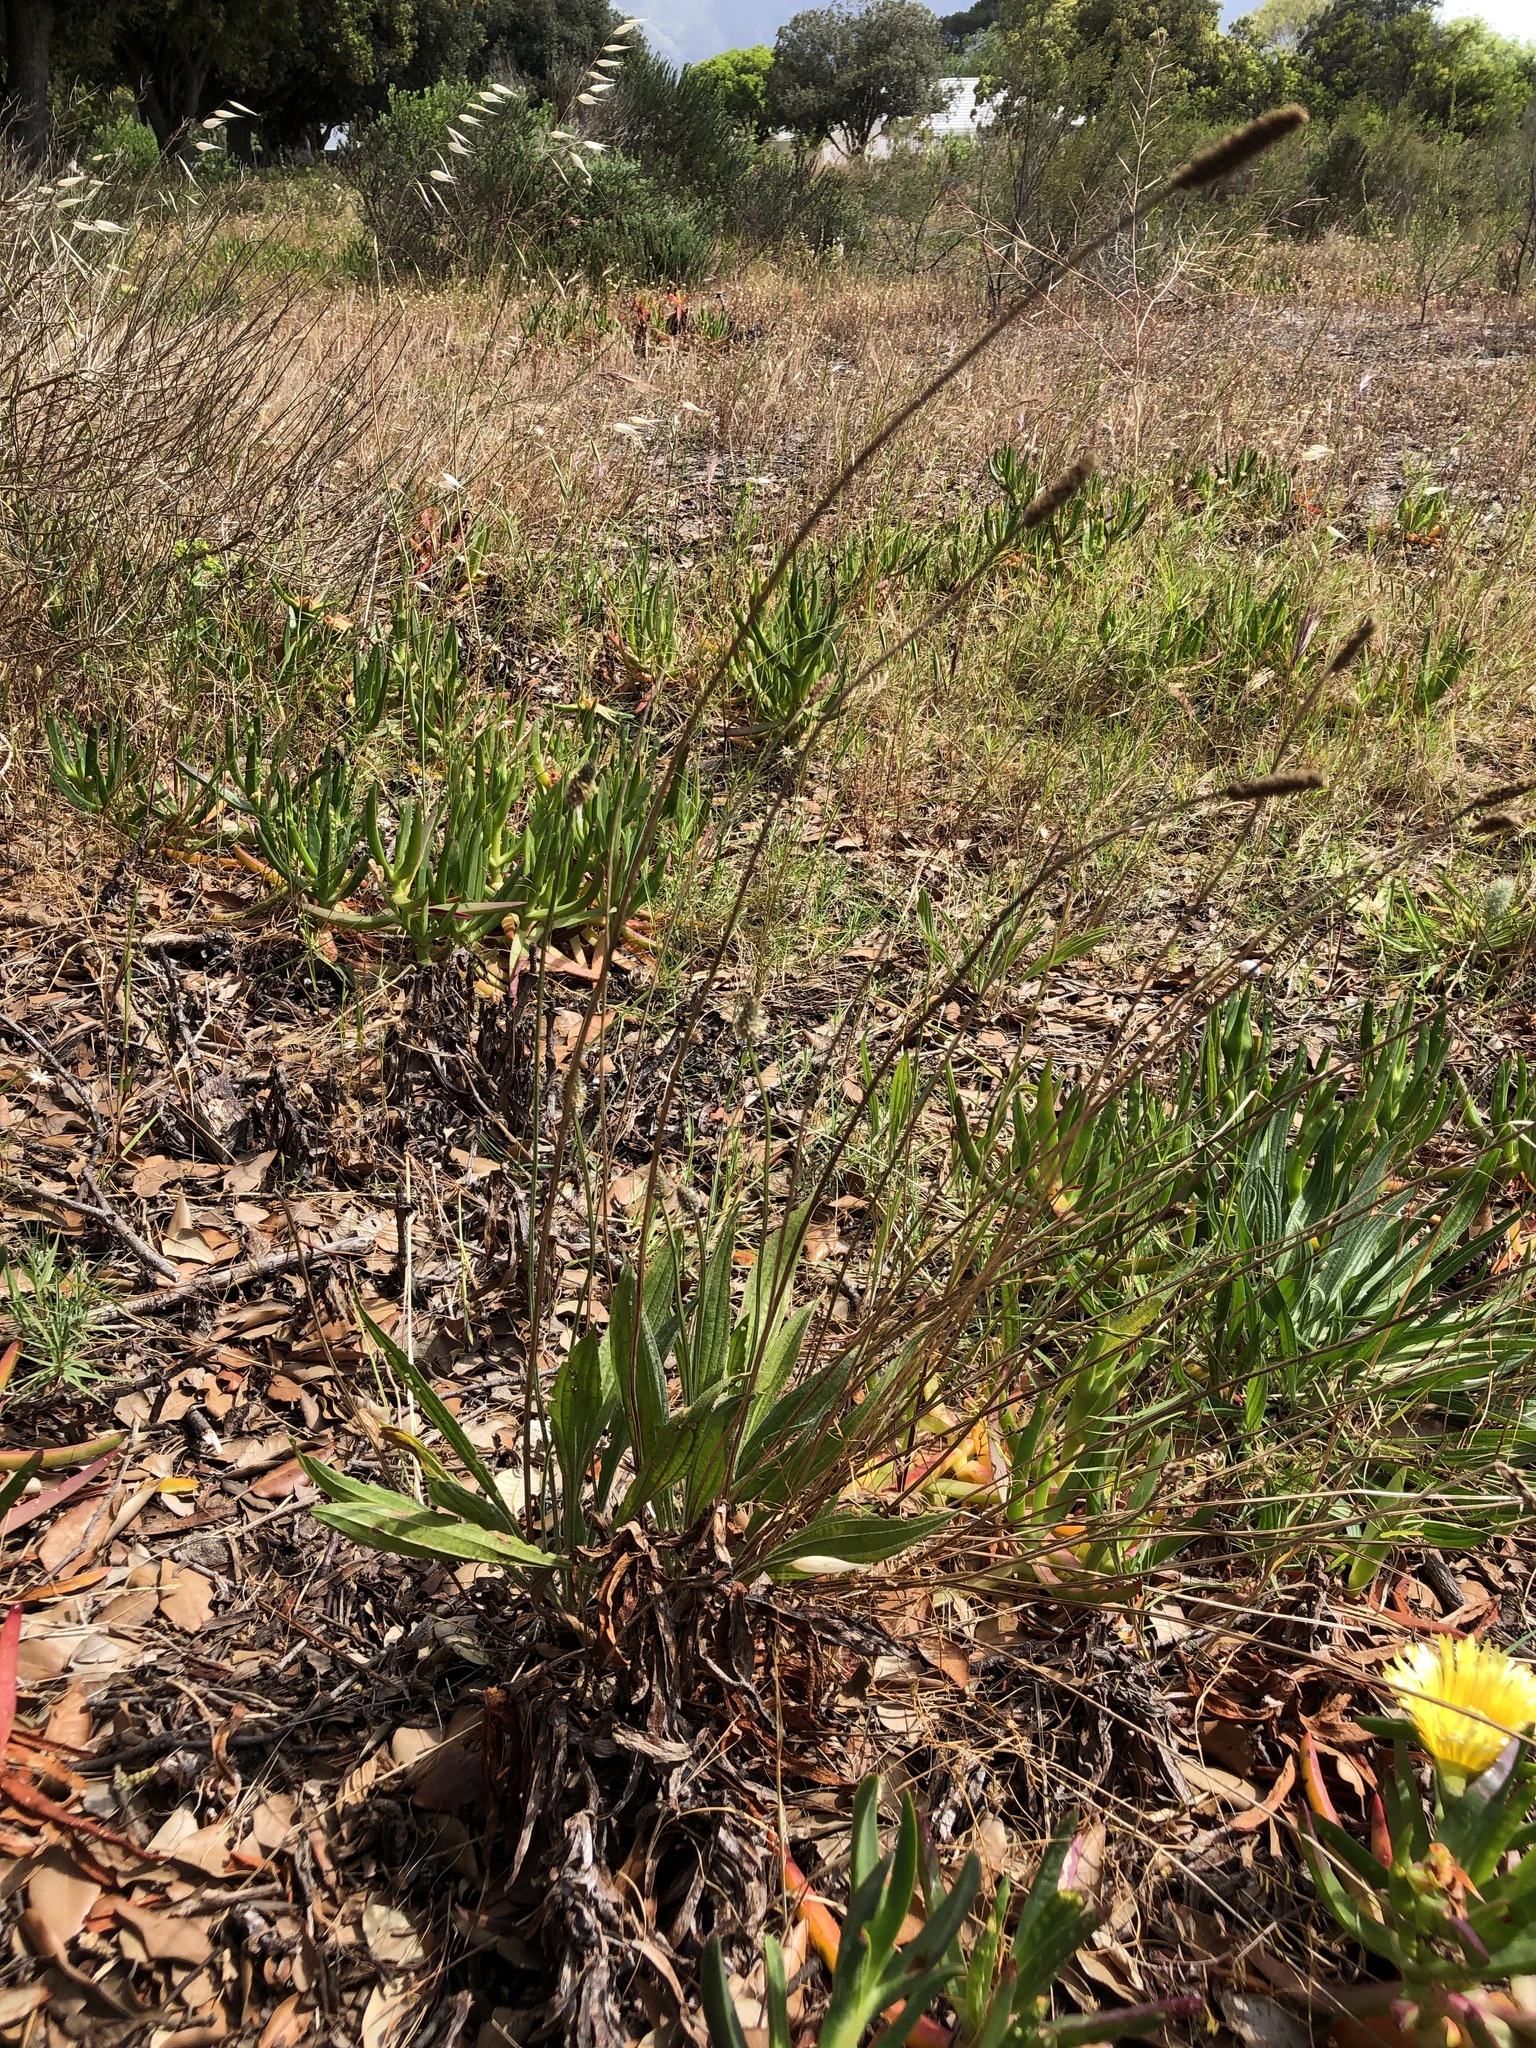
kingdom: Plantae
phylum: Tracheophyta
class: Magnoliopsida
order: Lamiales
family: Plantaginaceae
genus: Plantago
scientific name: Plantago lanceolata
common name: Ribwort plantain
